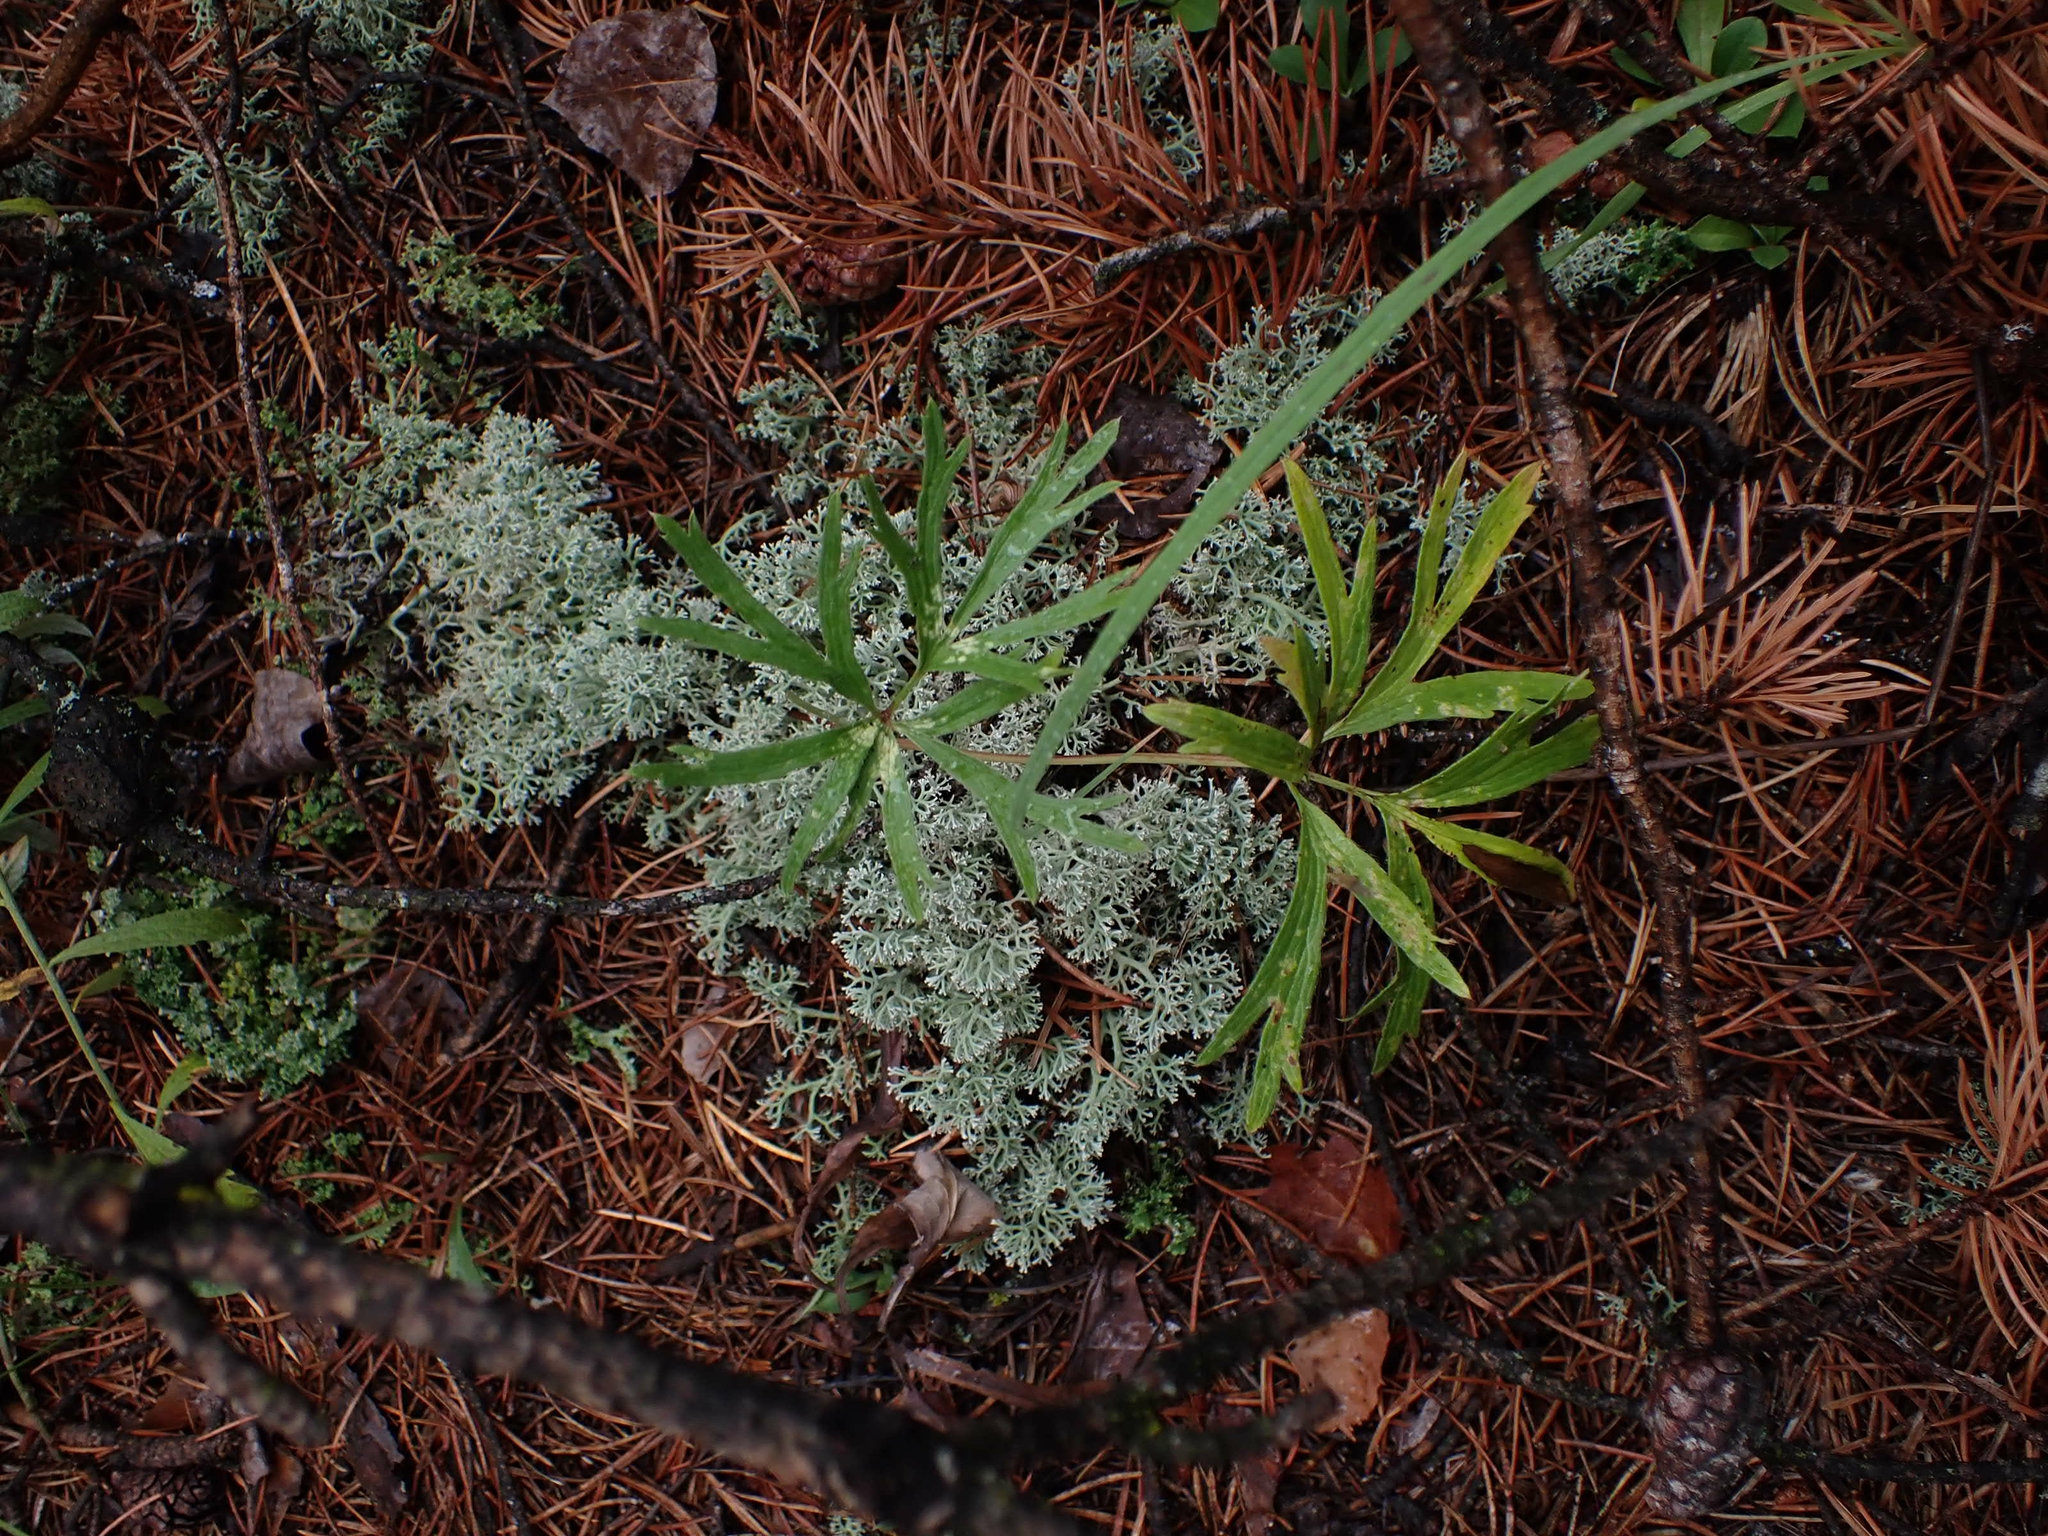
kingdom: Plantae
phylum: Tracheophyta
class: Magnoliopsida
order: Ranunculales
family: Ranunculaceae
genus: Pulsatilla
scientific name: Pulsatilla nuttalliana
